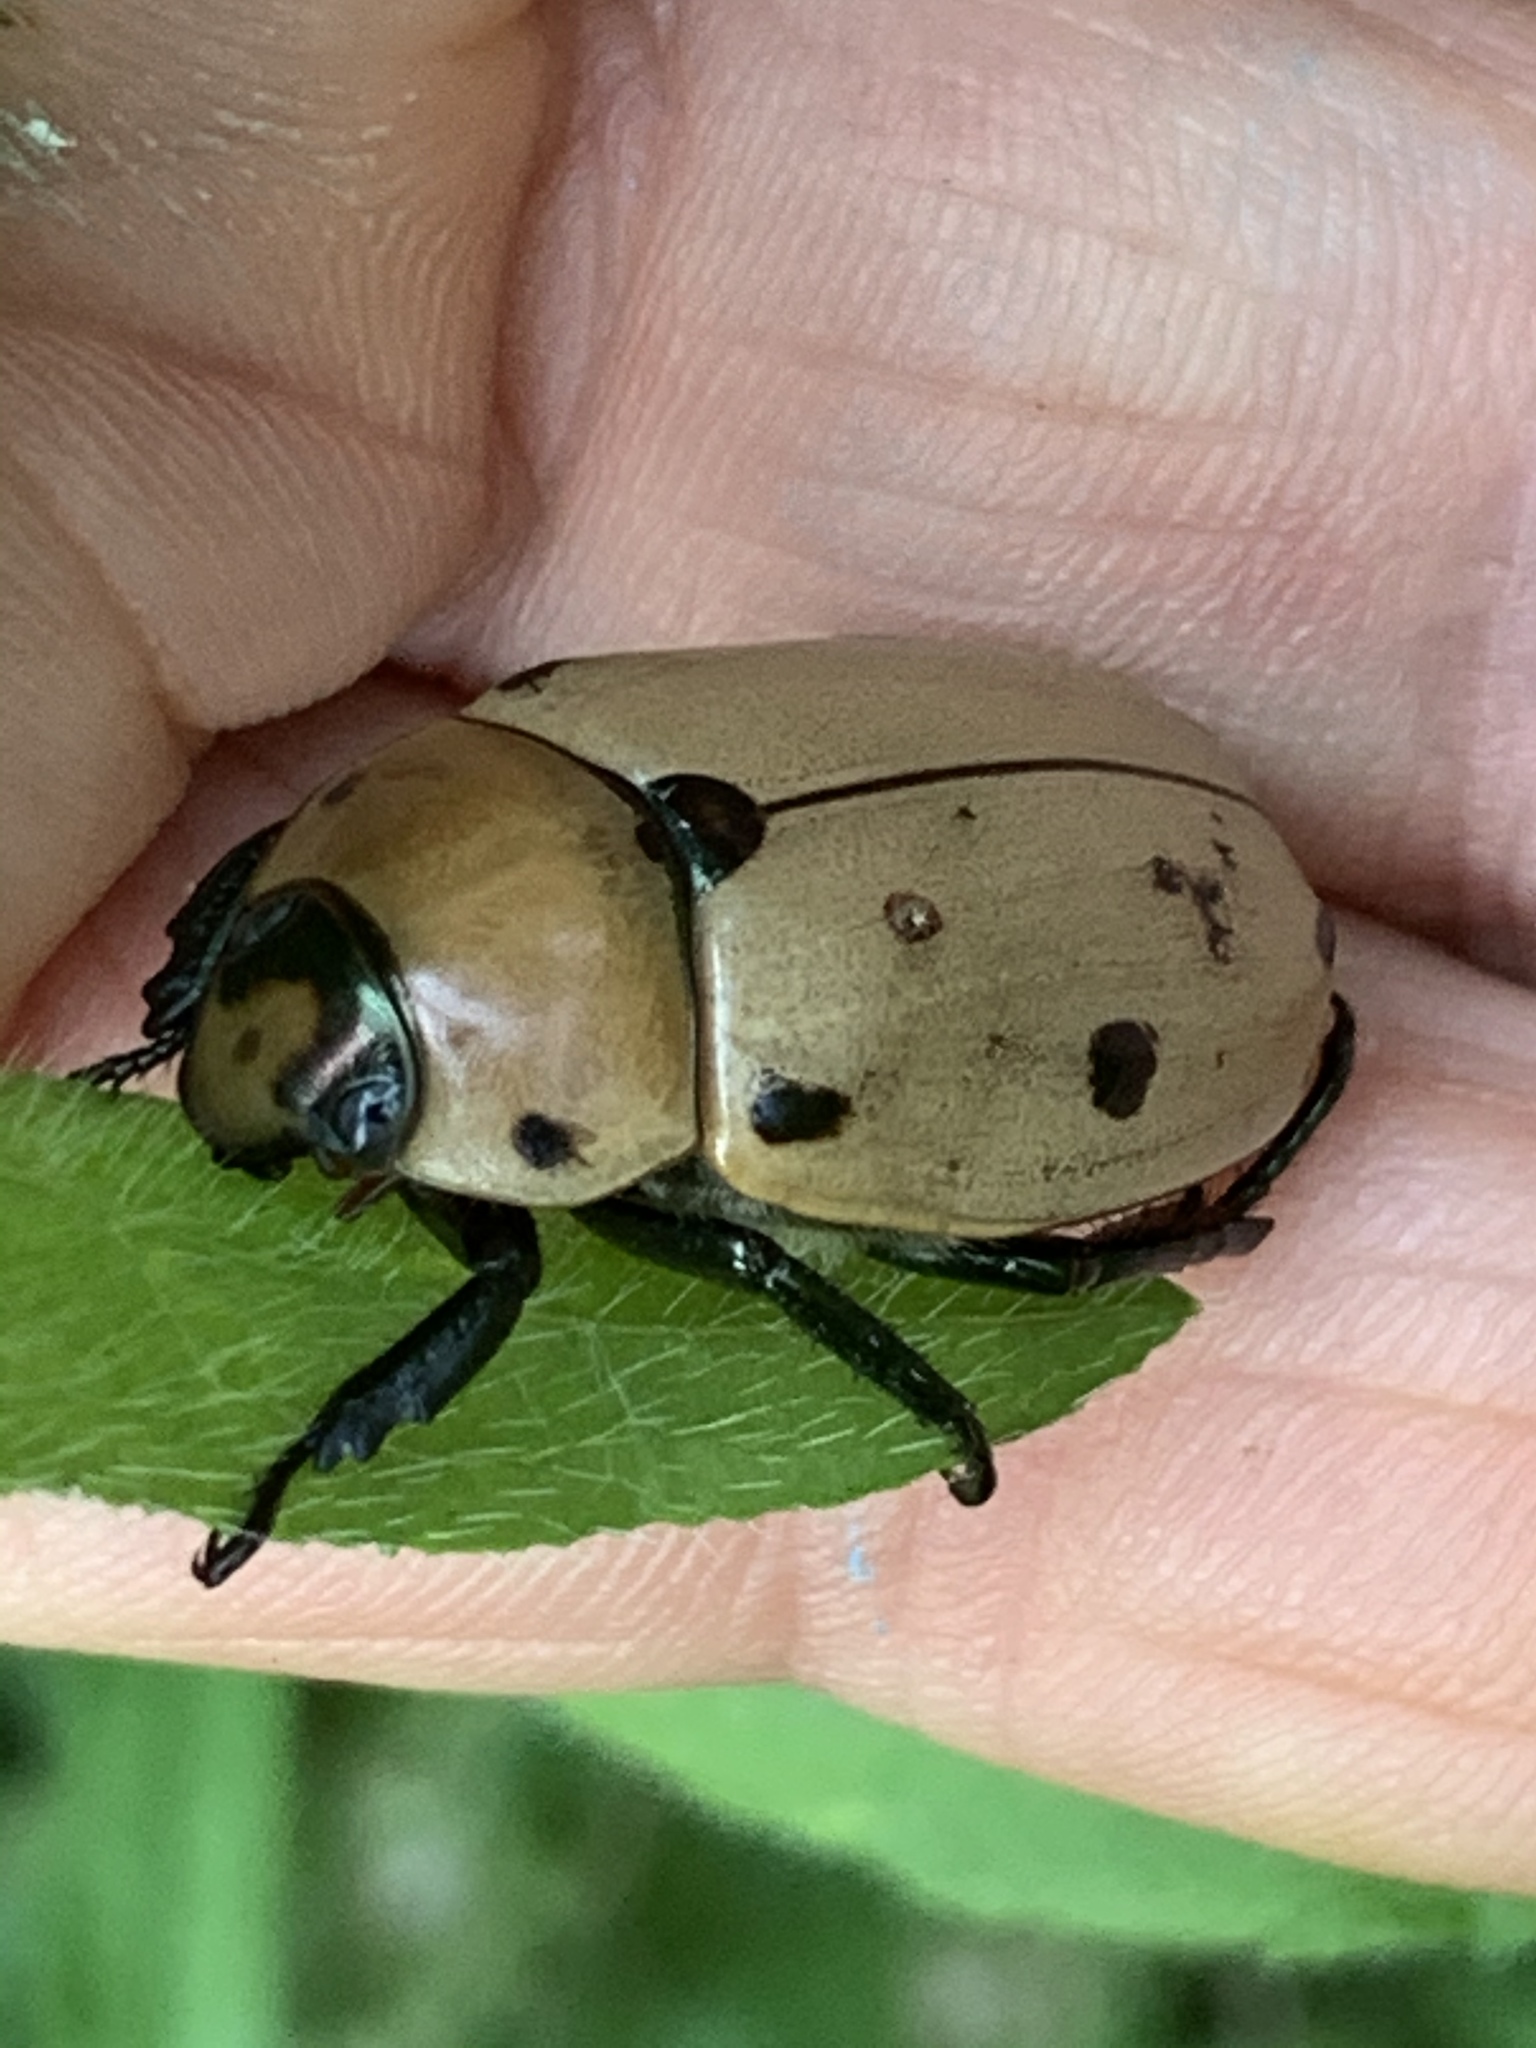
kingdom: Animalia
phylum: Arthropoda
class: Insecta
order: Coleoptera
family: Scarabaeidae
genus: Pelidnota
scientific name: Pelidnota punctata
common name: Grapevine beetle
